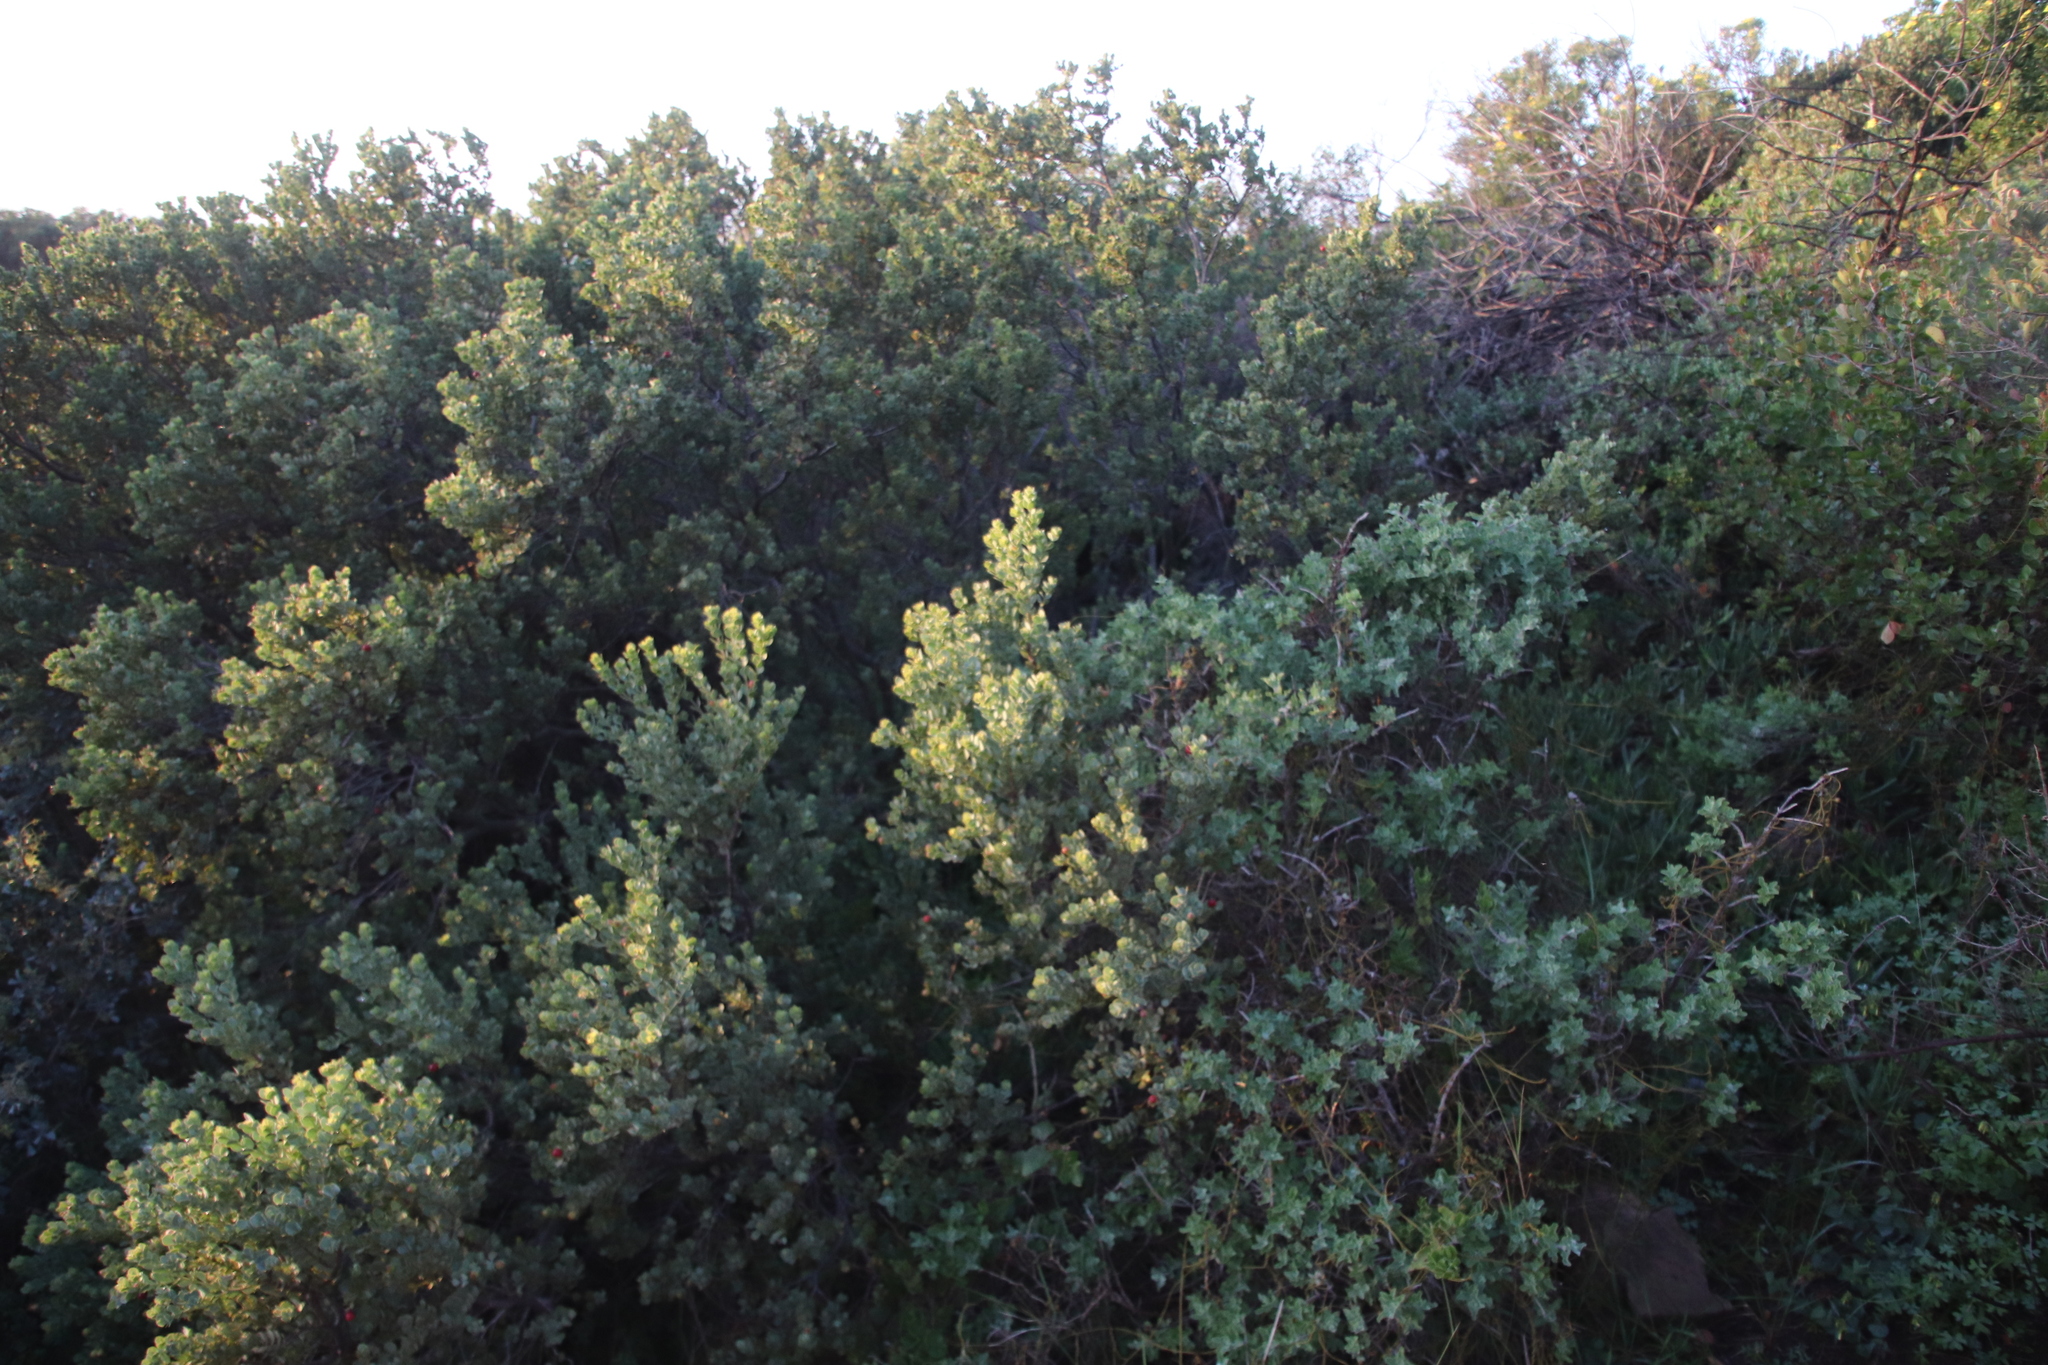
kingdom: Plantae
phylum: Tracheophyta
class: Magnoliopsida
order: Santalales
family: Santalaceae
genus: Osyris
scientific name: Osyris compressa
